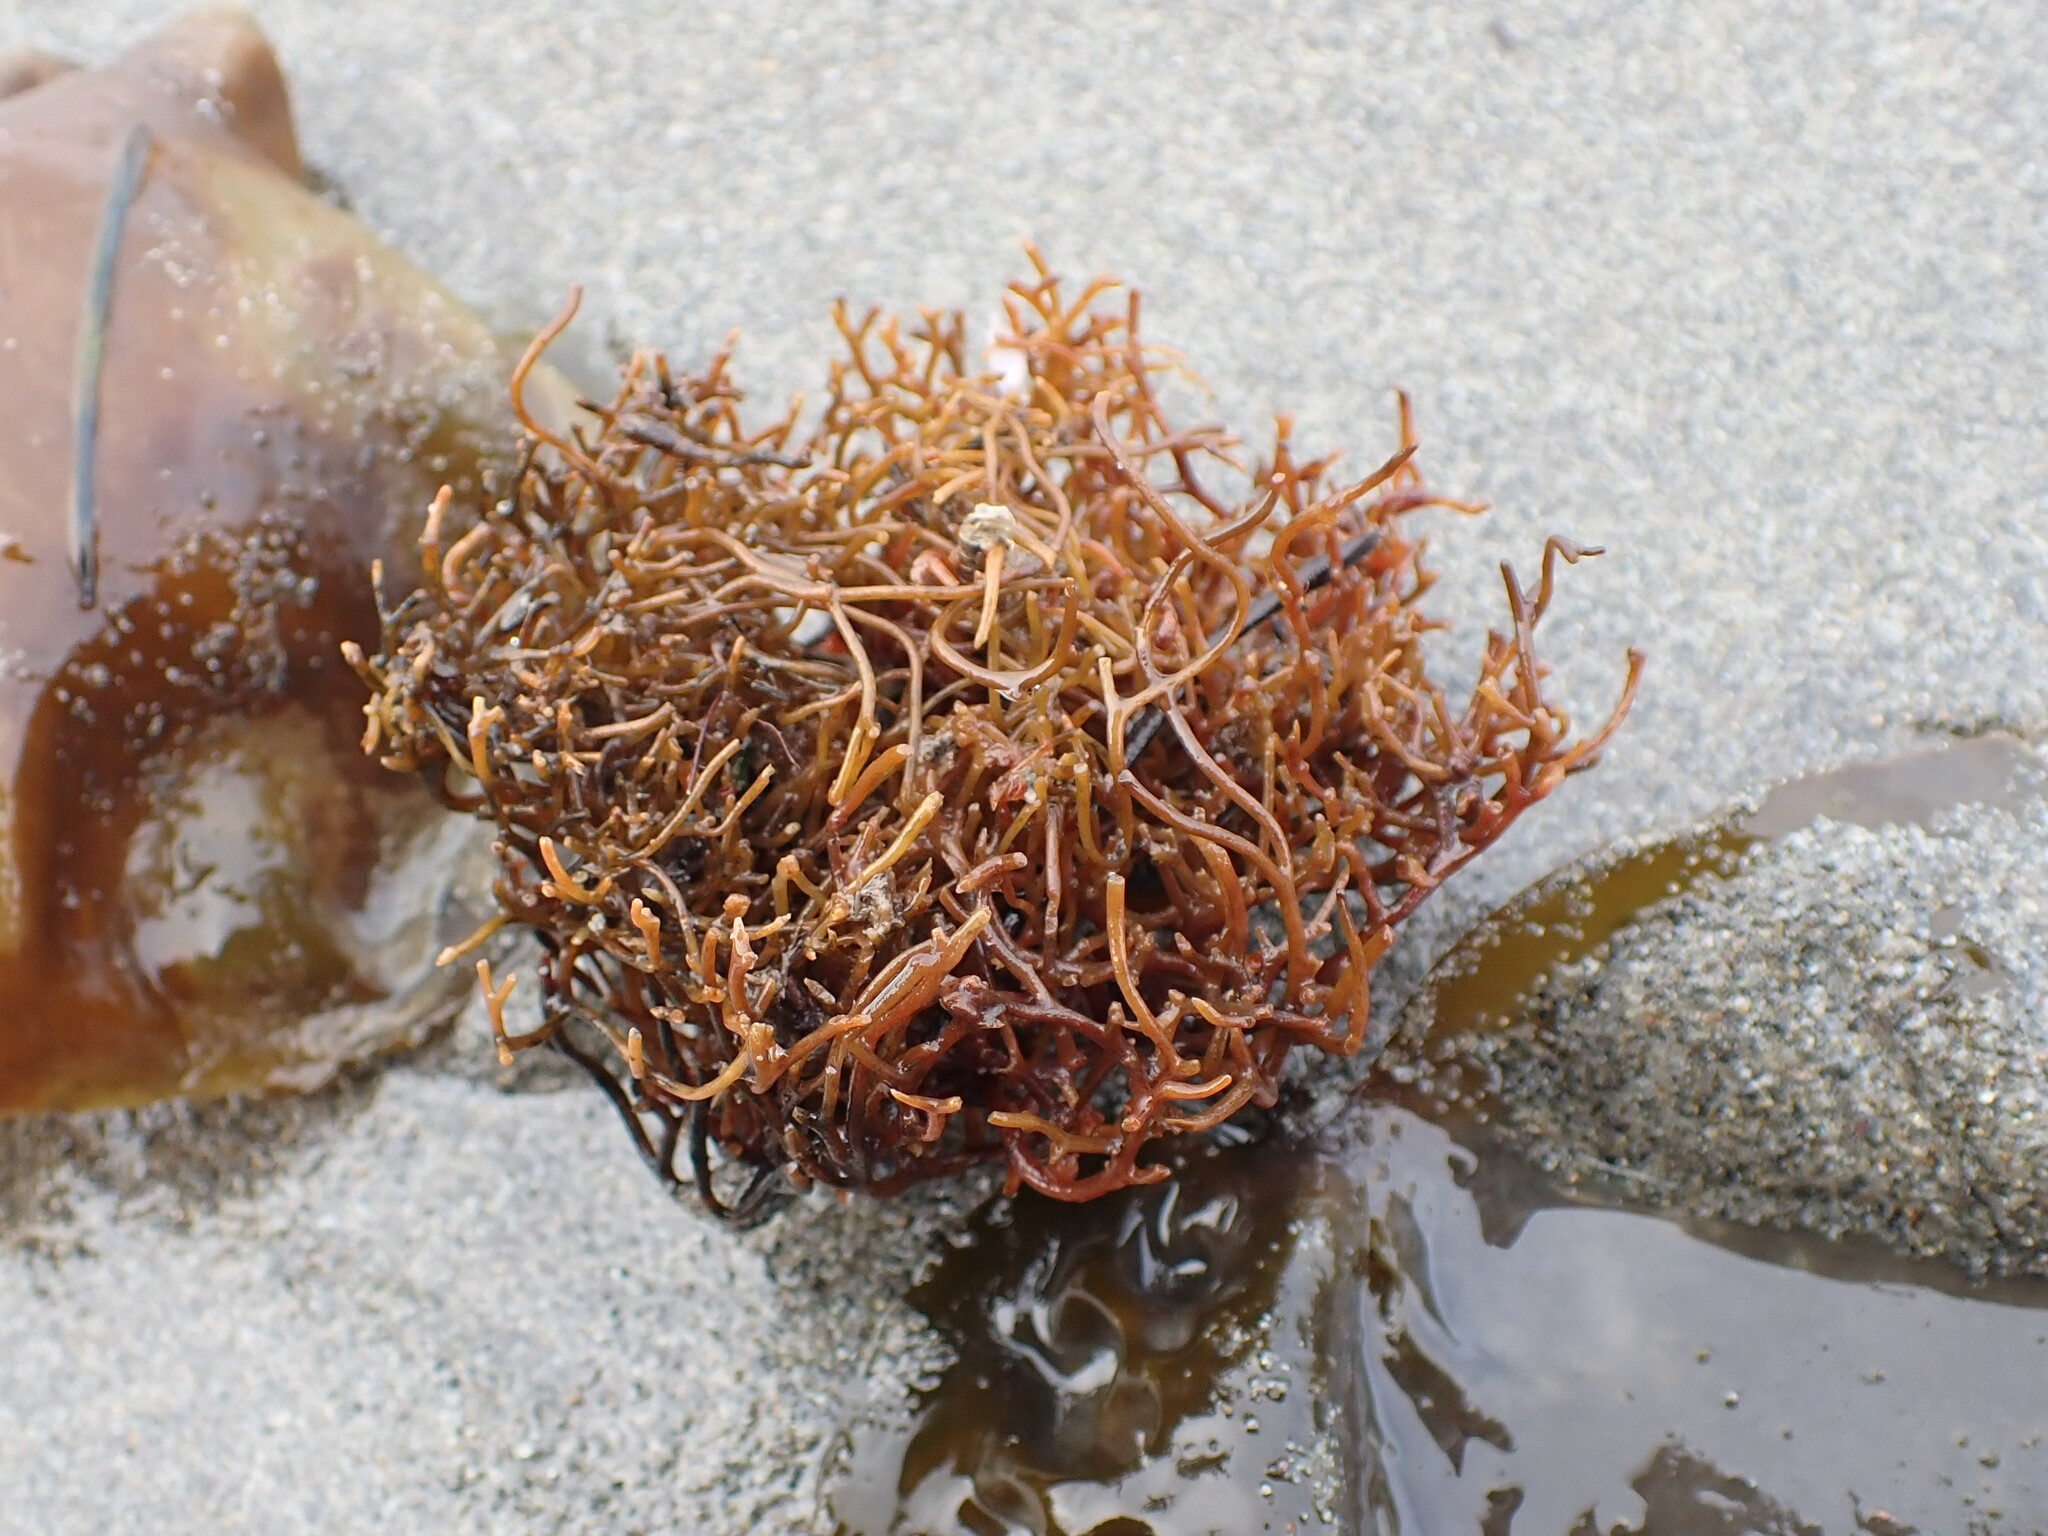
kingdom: Chromista
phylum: Ochrophyta
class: Phaeophyceae
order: Laminariales
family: Laminariaceae
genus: Saccharina
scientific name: Saccharina latissima
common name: Poor man's weather glass
